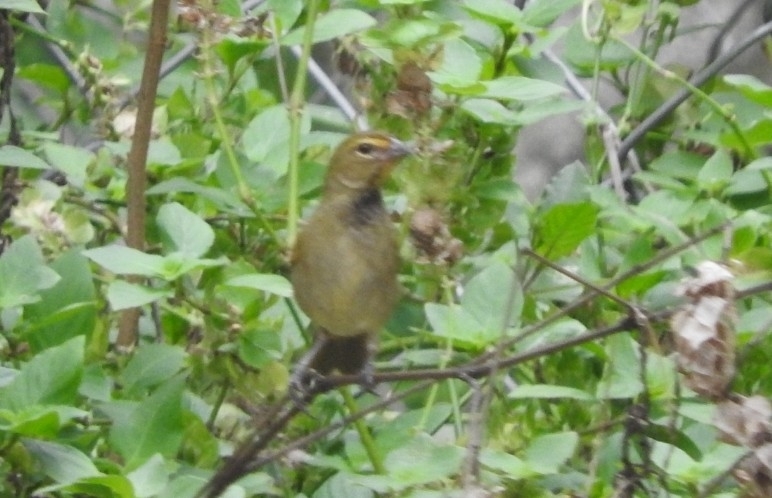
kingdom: Animalia
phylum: Chordata
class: Aves
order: Passeriformes
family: Thraupidae
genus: Tiaris
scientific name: Tiaris olivaceus
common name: Yellow-faced grassquit
